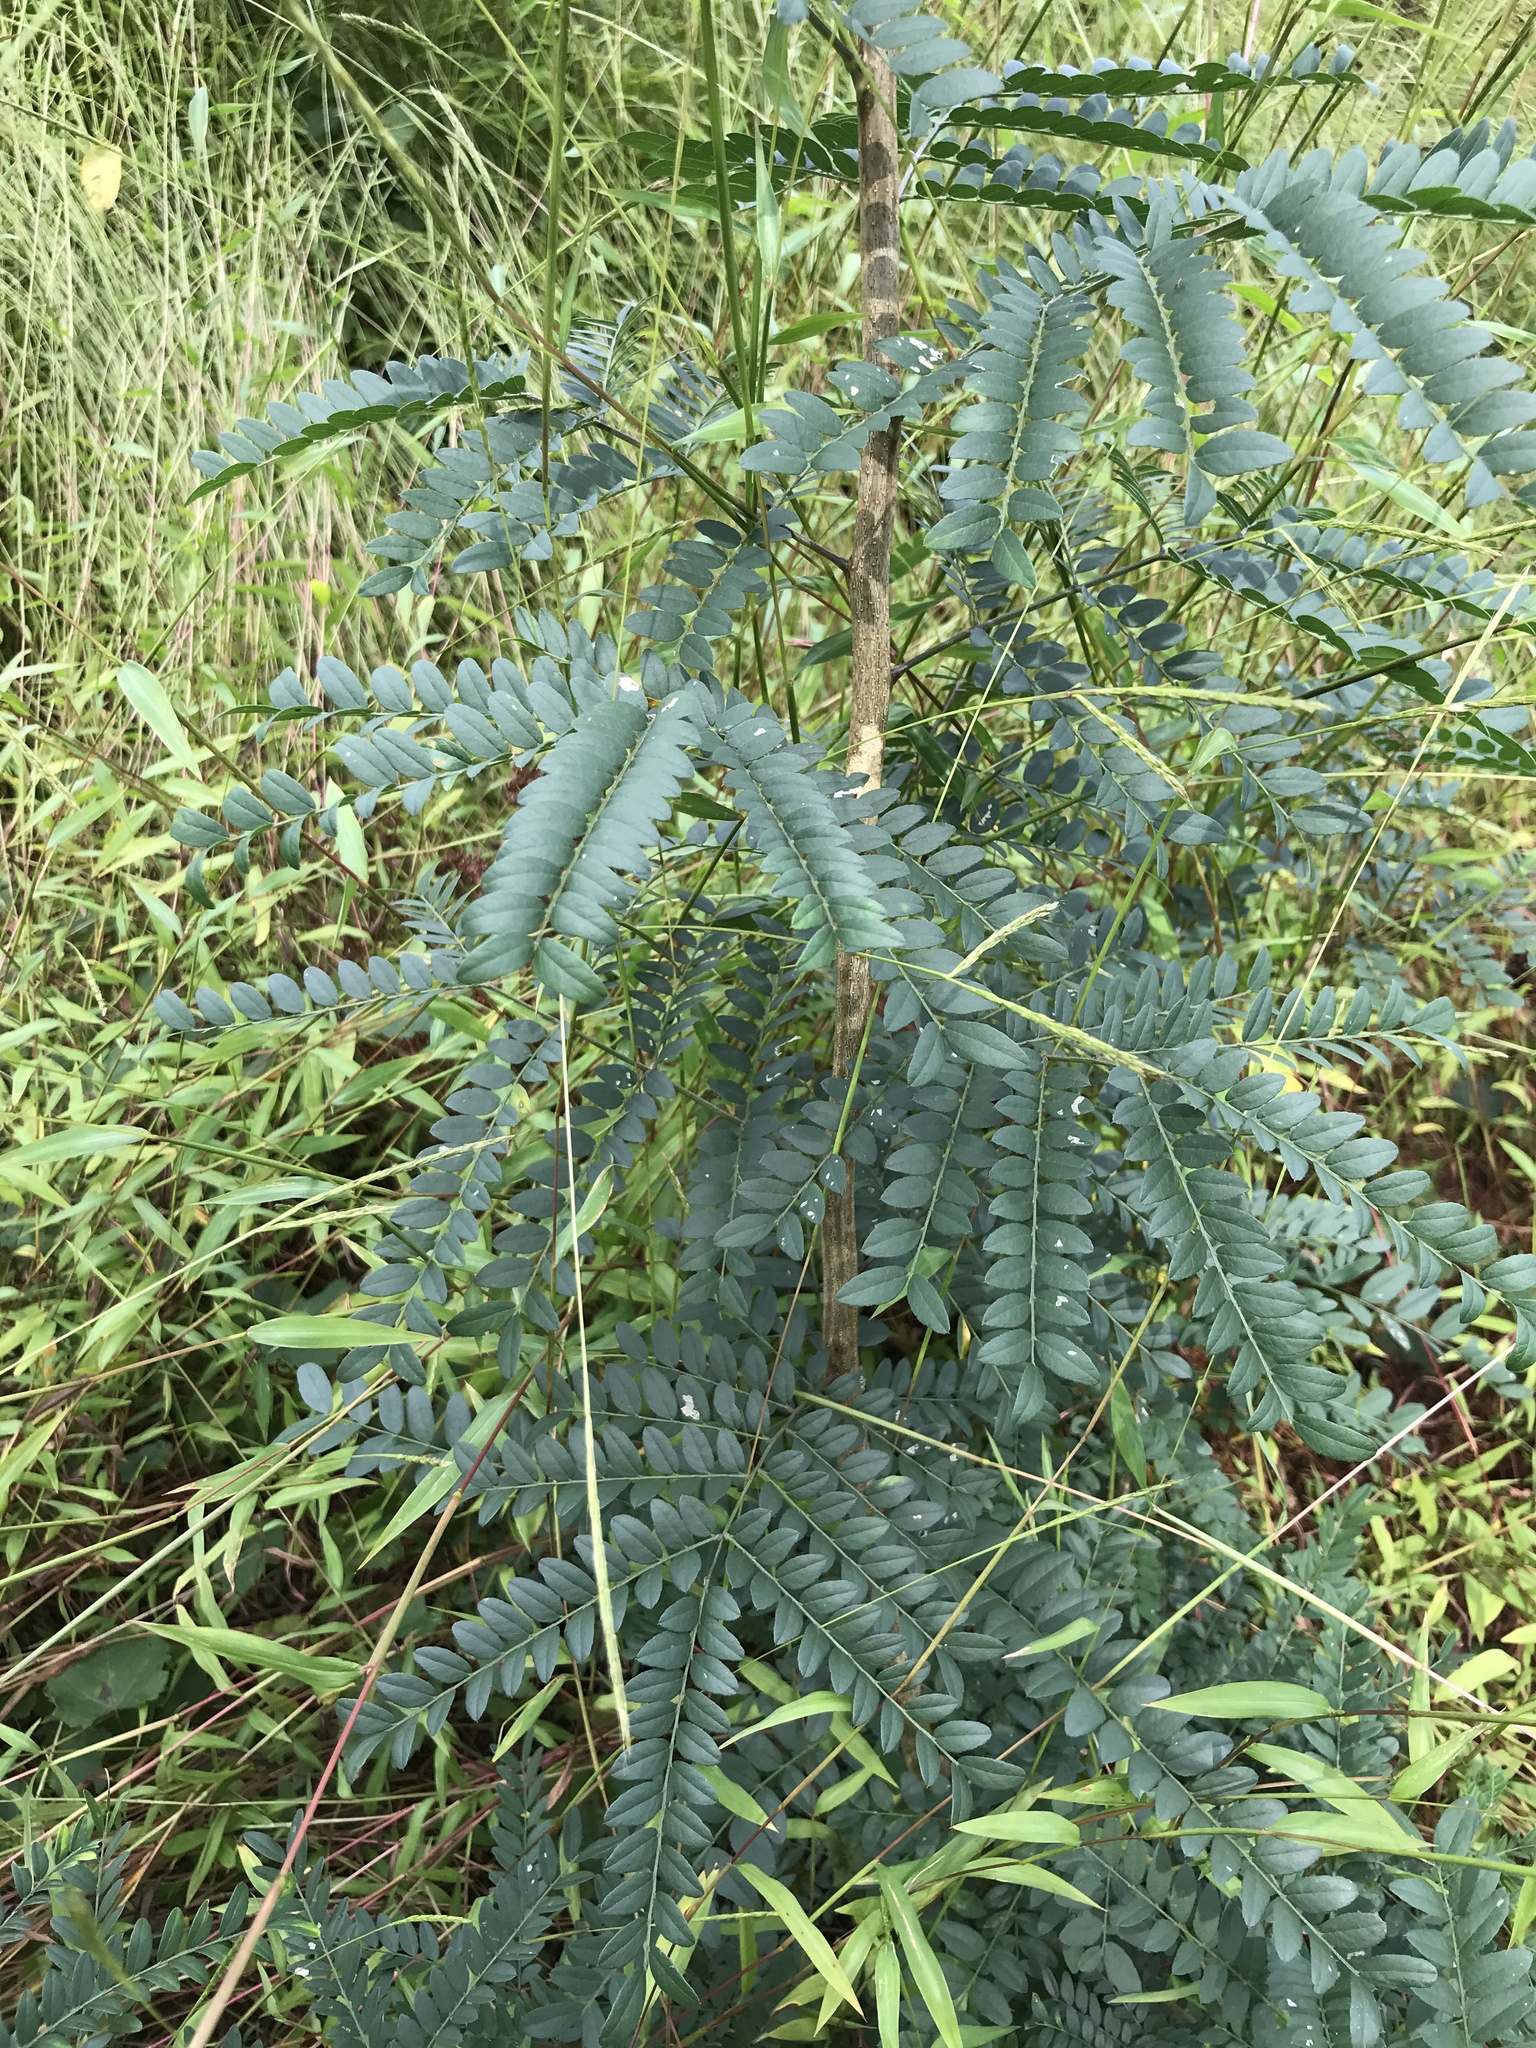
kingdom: Plantae
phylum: Tracheophyta
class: Magnoliopsida
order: Fabales
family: Fabaceae
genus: Gleditsia
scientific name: Gleditsia triacanthos
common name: Common honeylocust
